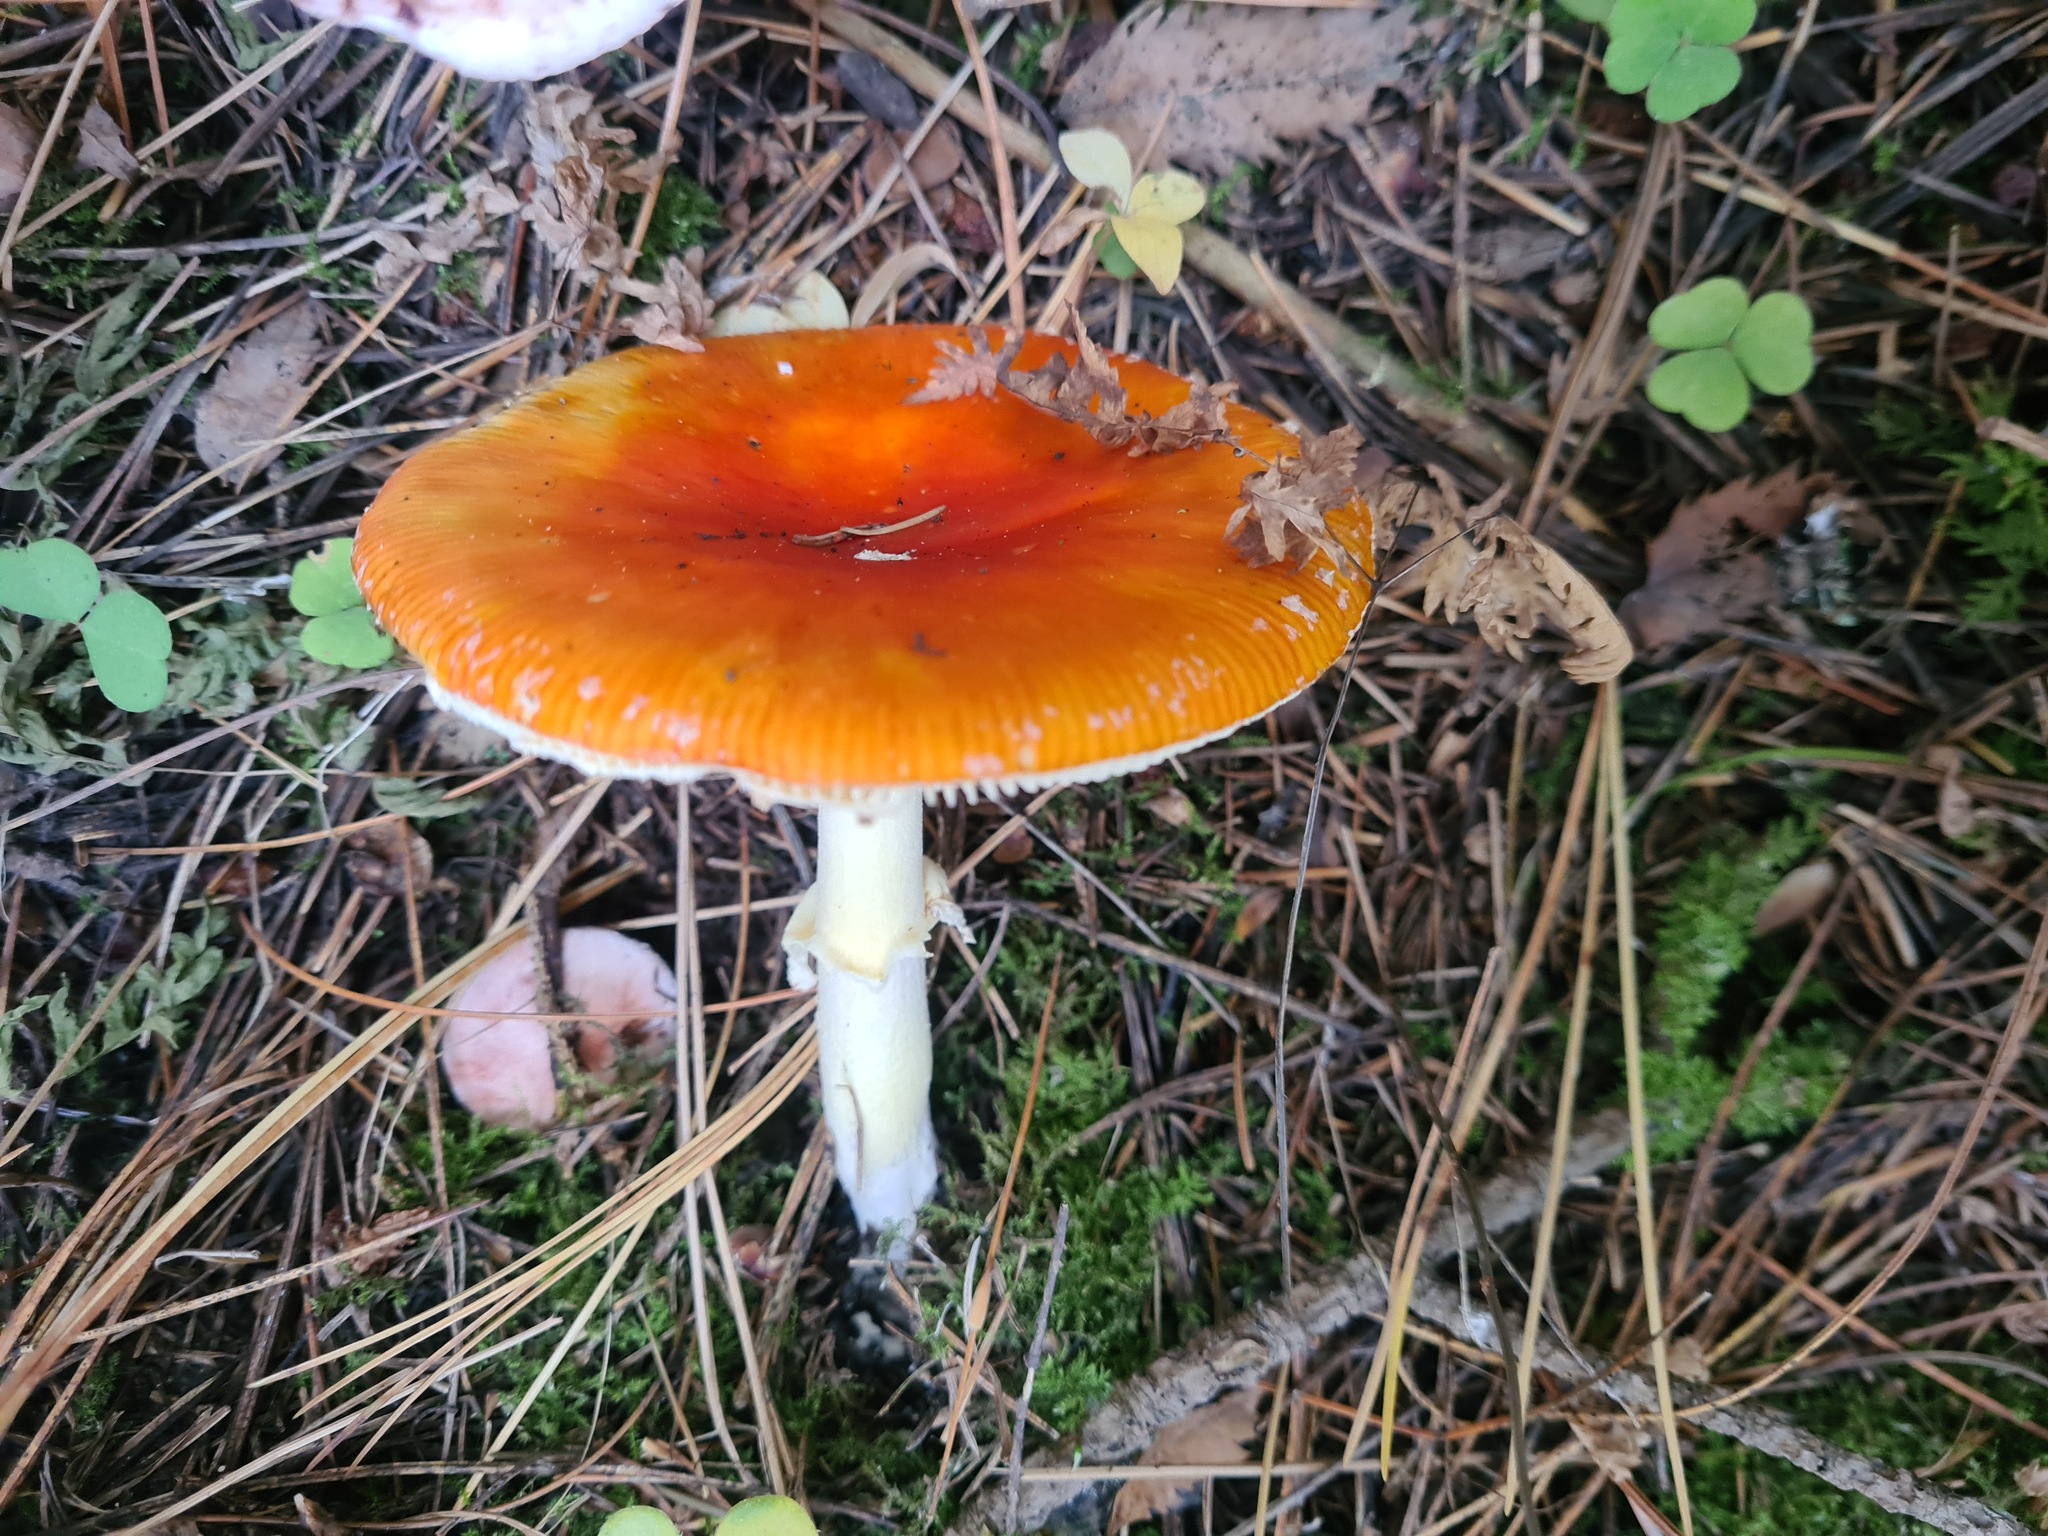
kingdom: Fungi
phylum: Basidiomycota
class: Agaricomycetes
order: Agaricales
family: Amanitaceae
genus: Amanita
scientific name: Amanita muscaria
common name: Fly agaric
